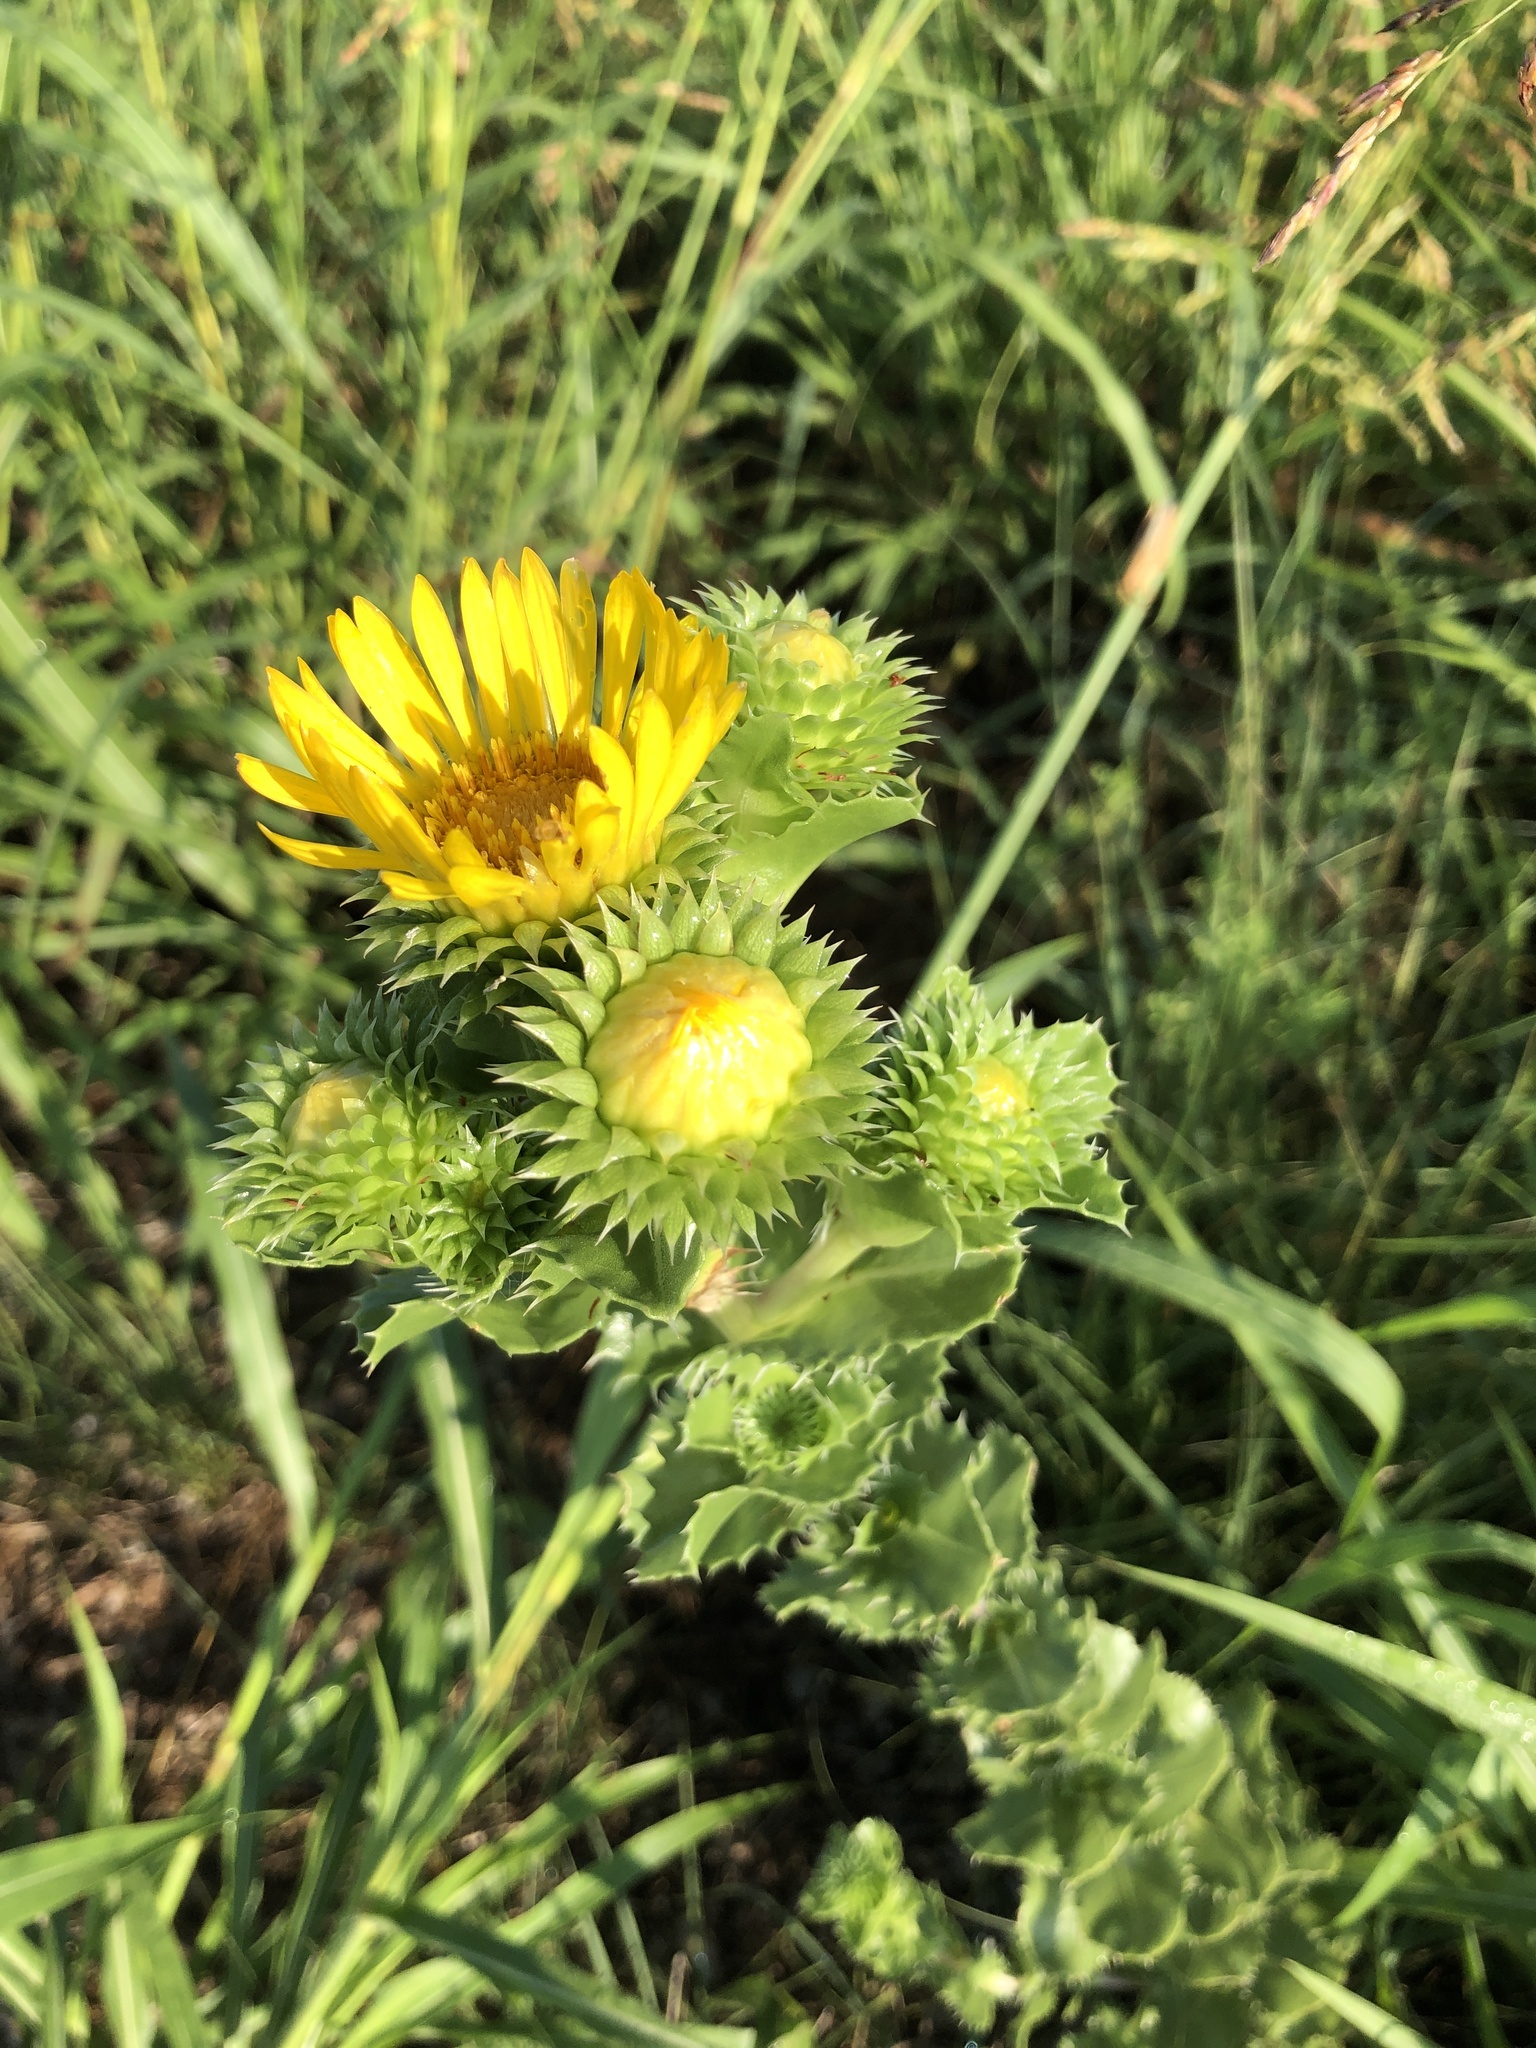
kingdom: Plantae
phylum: Tracheophyta
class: Magnoliopsida
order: Asterales
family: Asteraceae
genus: Grindelia
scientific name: Grindelia ciliata
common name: Goldenweed
